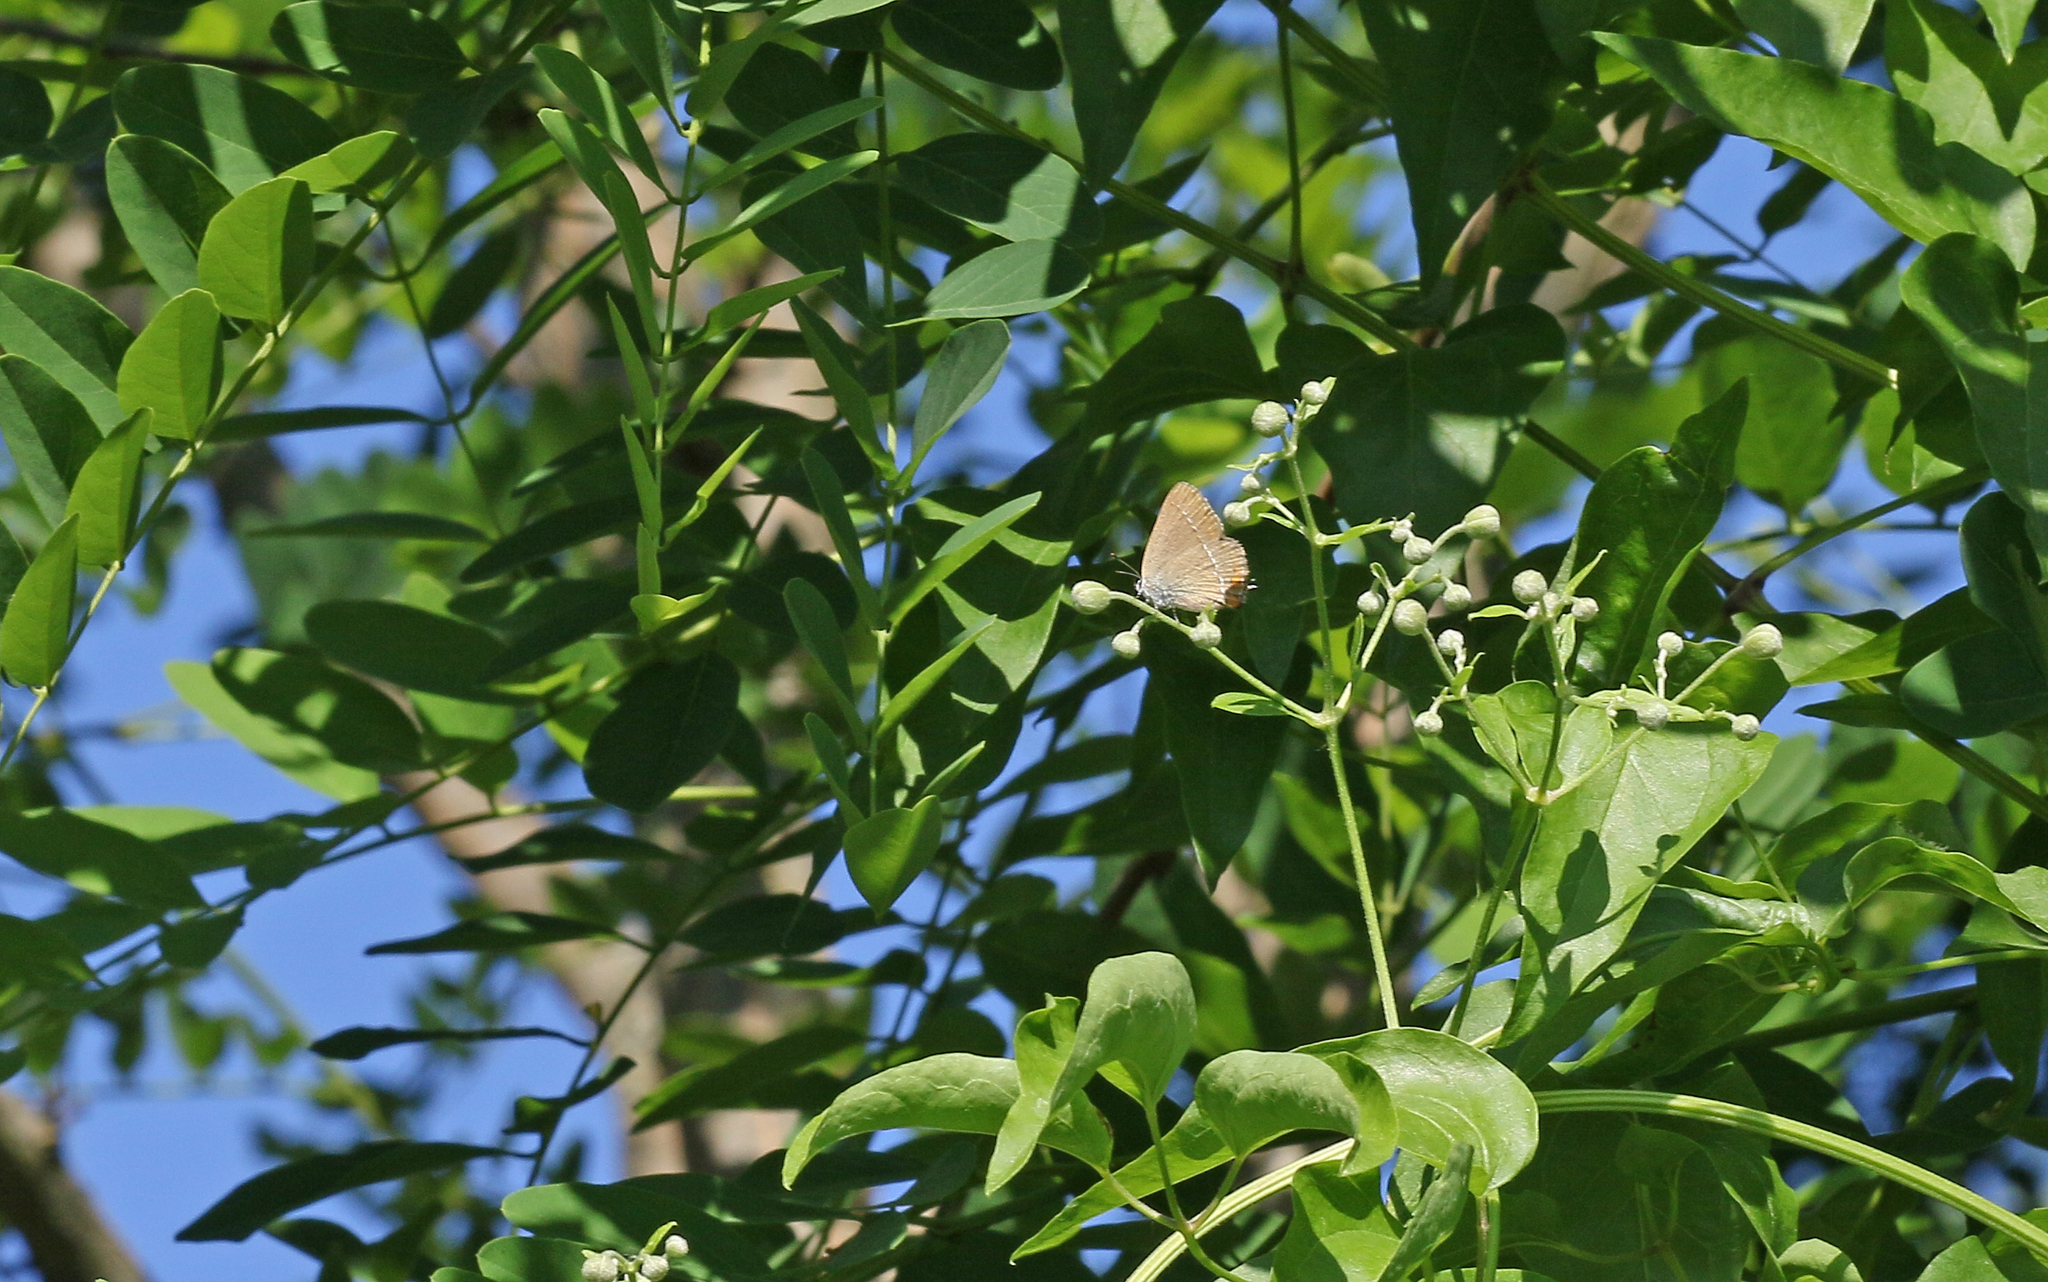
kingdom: Animalia
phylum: Arthropoda
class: Insecta
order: Lepidoptera
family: Lycaenidae
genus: Strymon
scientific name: Strymon acaciae
